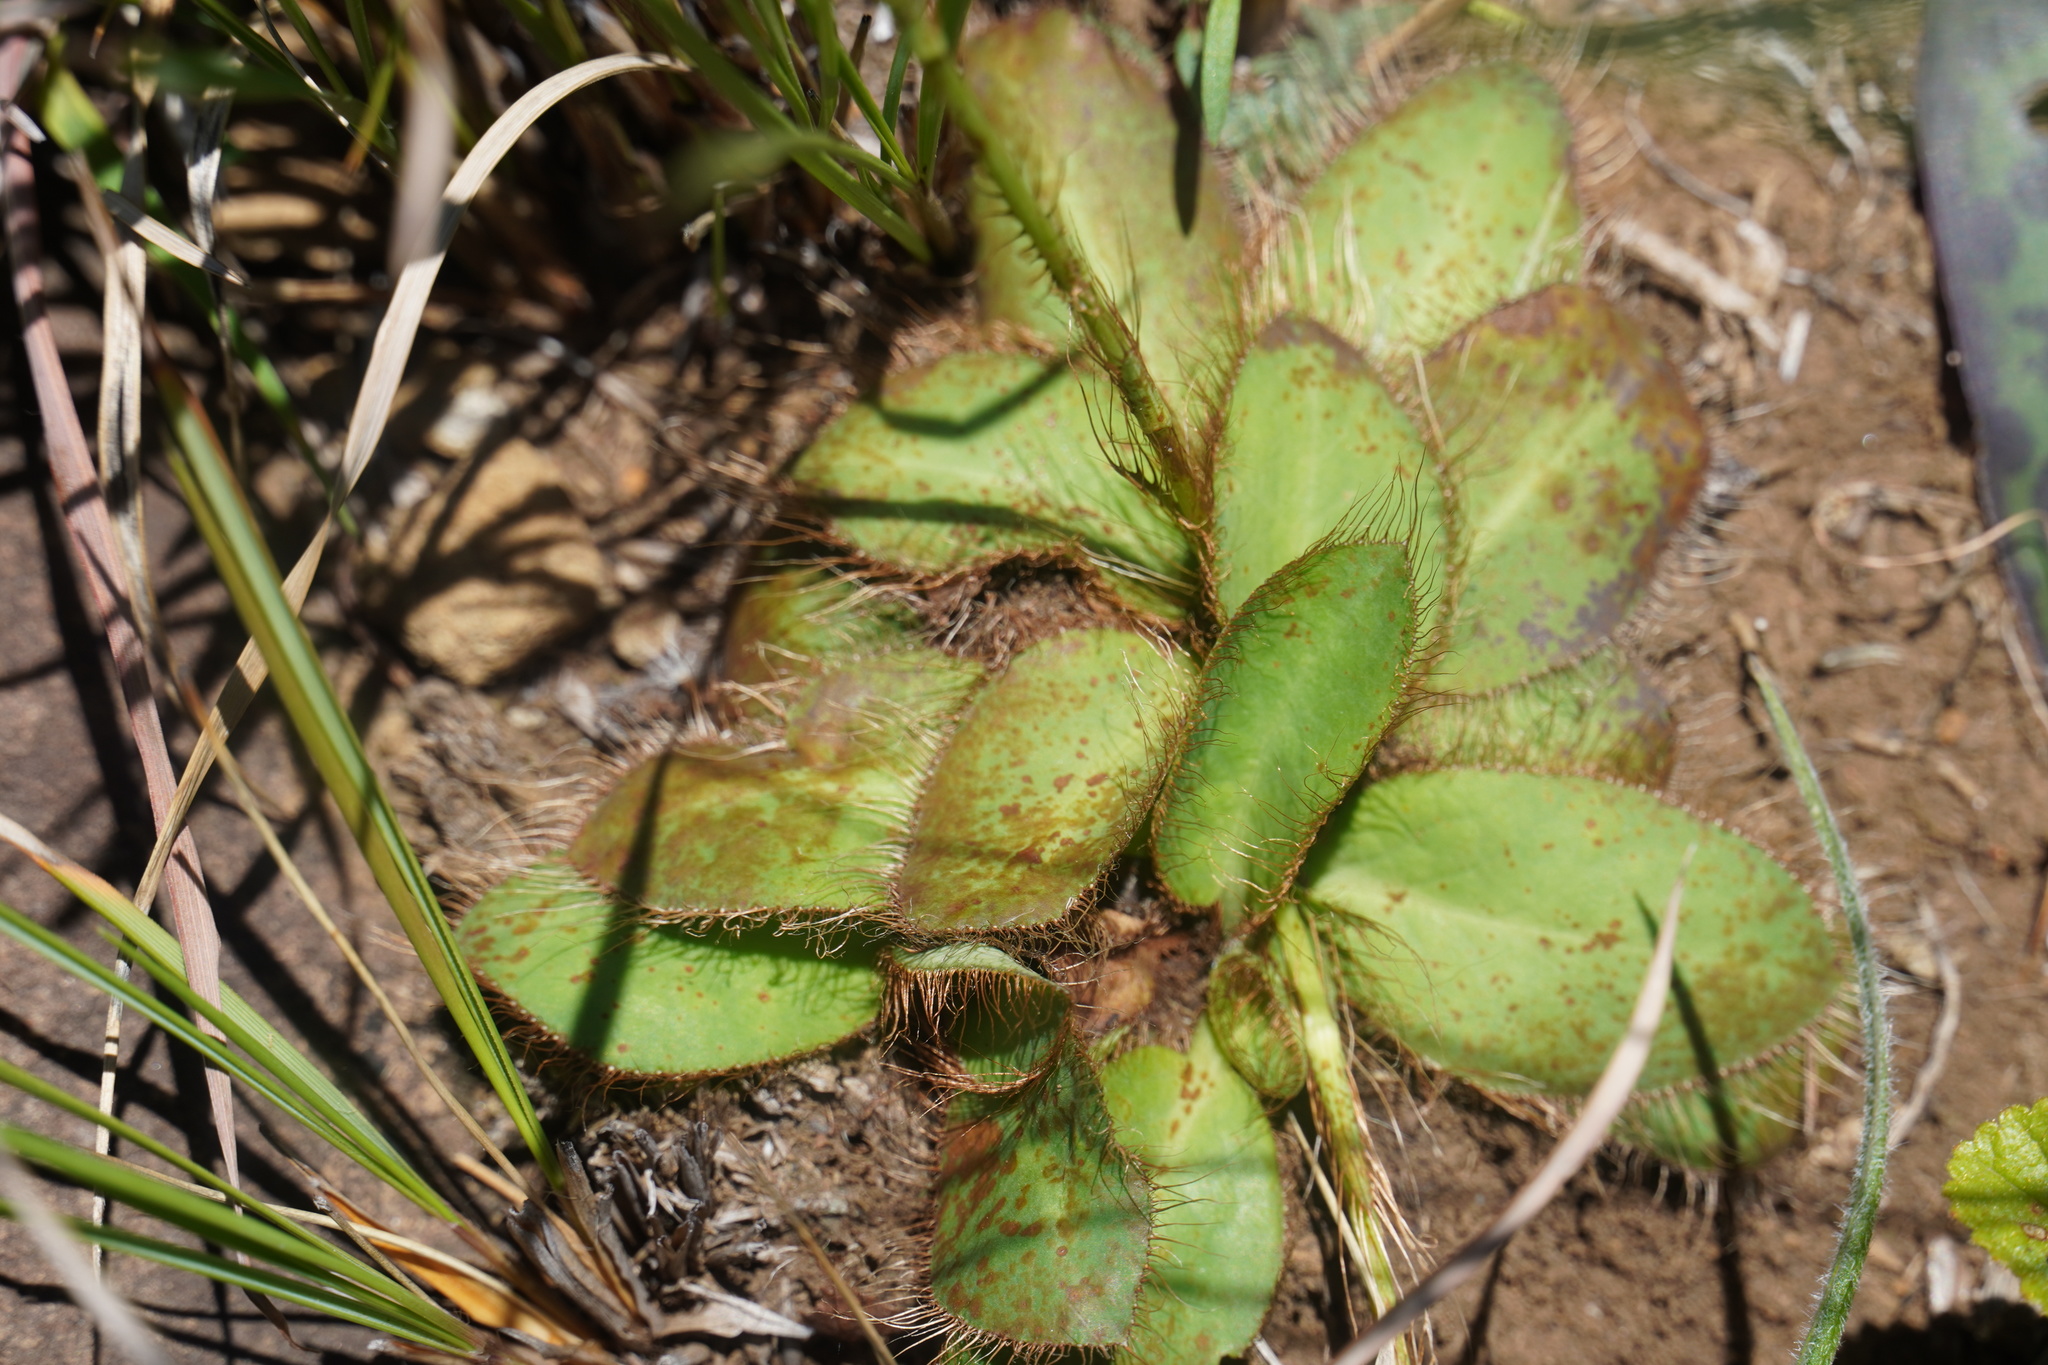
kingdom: Plantae
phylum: Tracheophyta
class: Magnoliopsida
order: Apiales
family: Apiaceae
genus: Alepidea
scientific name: Alepidea natalensis
